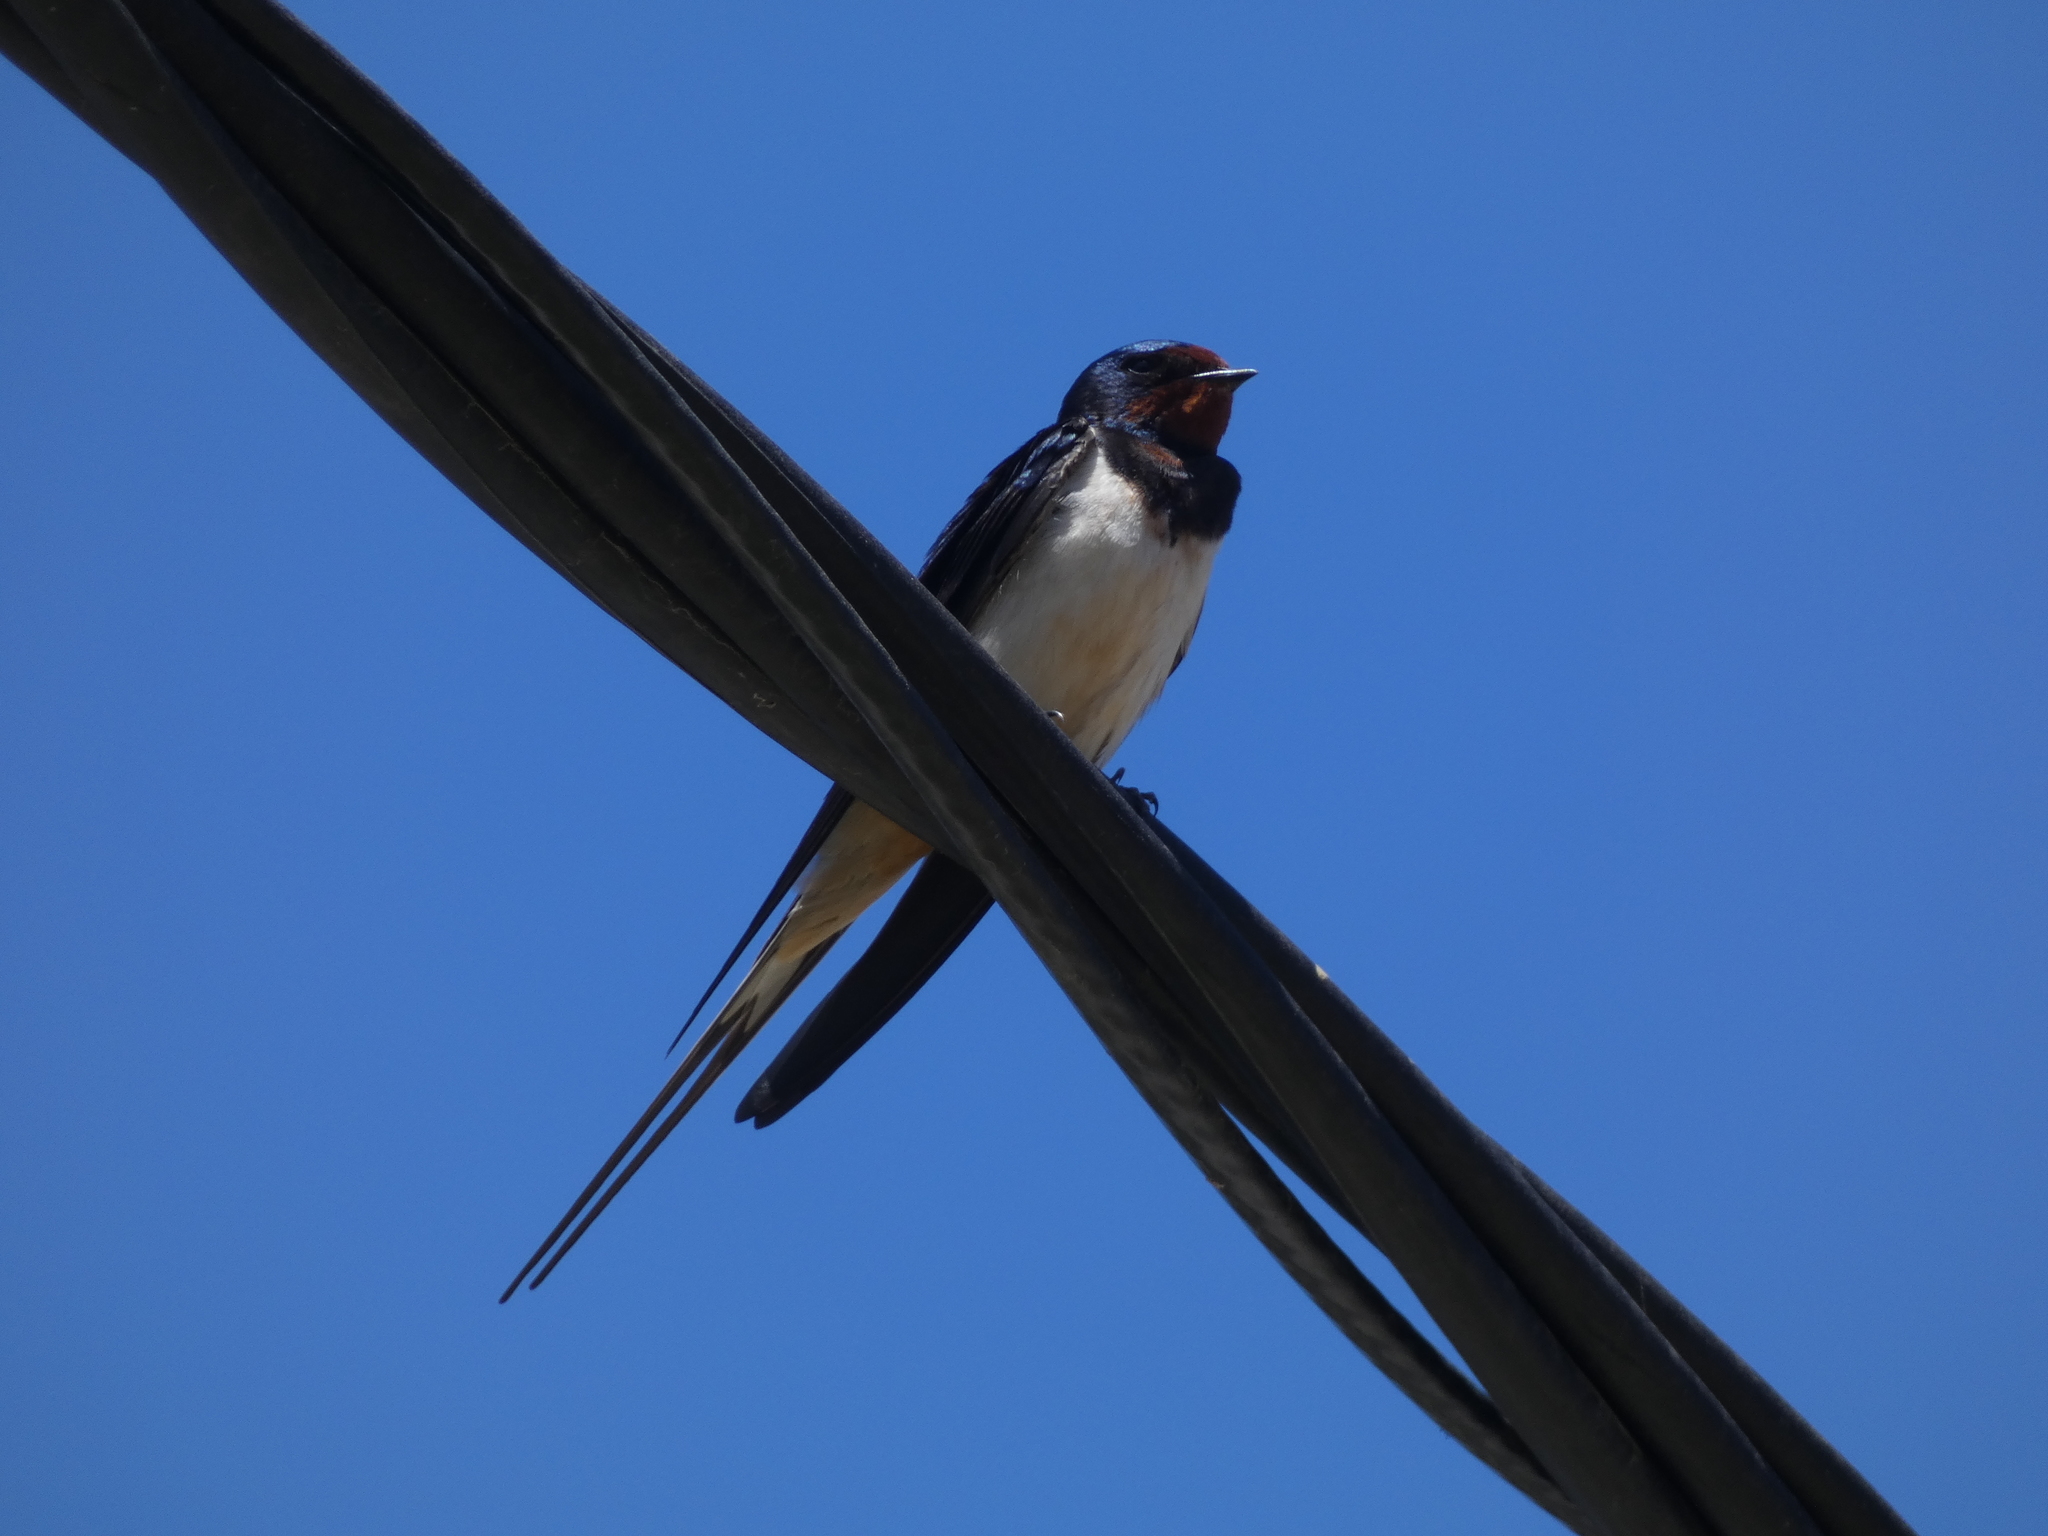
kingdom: Animalia
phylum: Chordata
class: Aves
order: Passeriformes
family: Hirundinidae
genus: Hirundo
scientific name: Hirundo rustica
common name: Barn swallow
